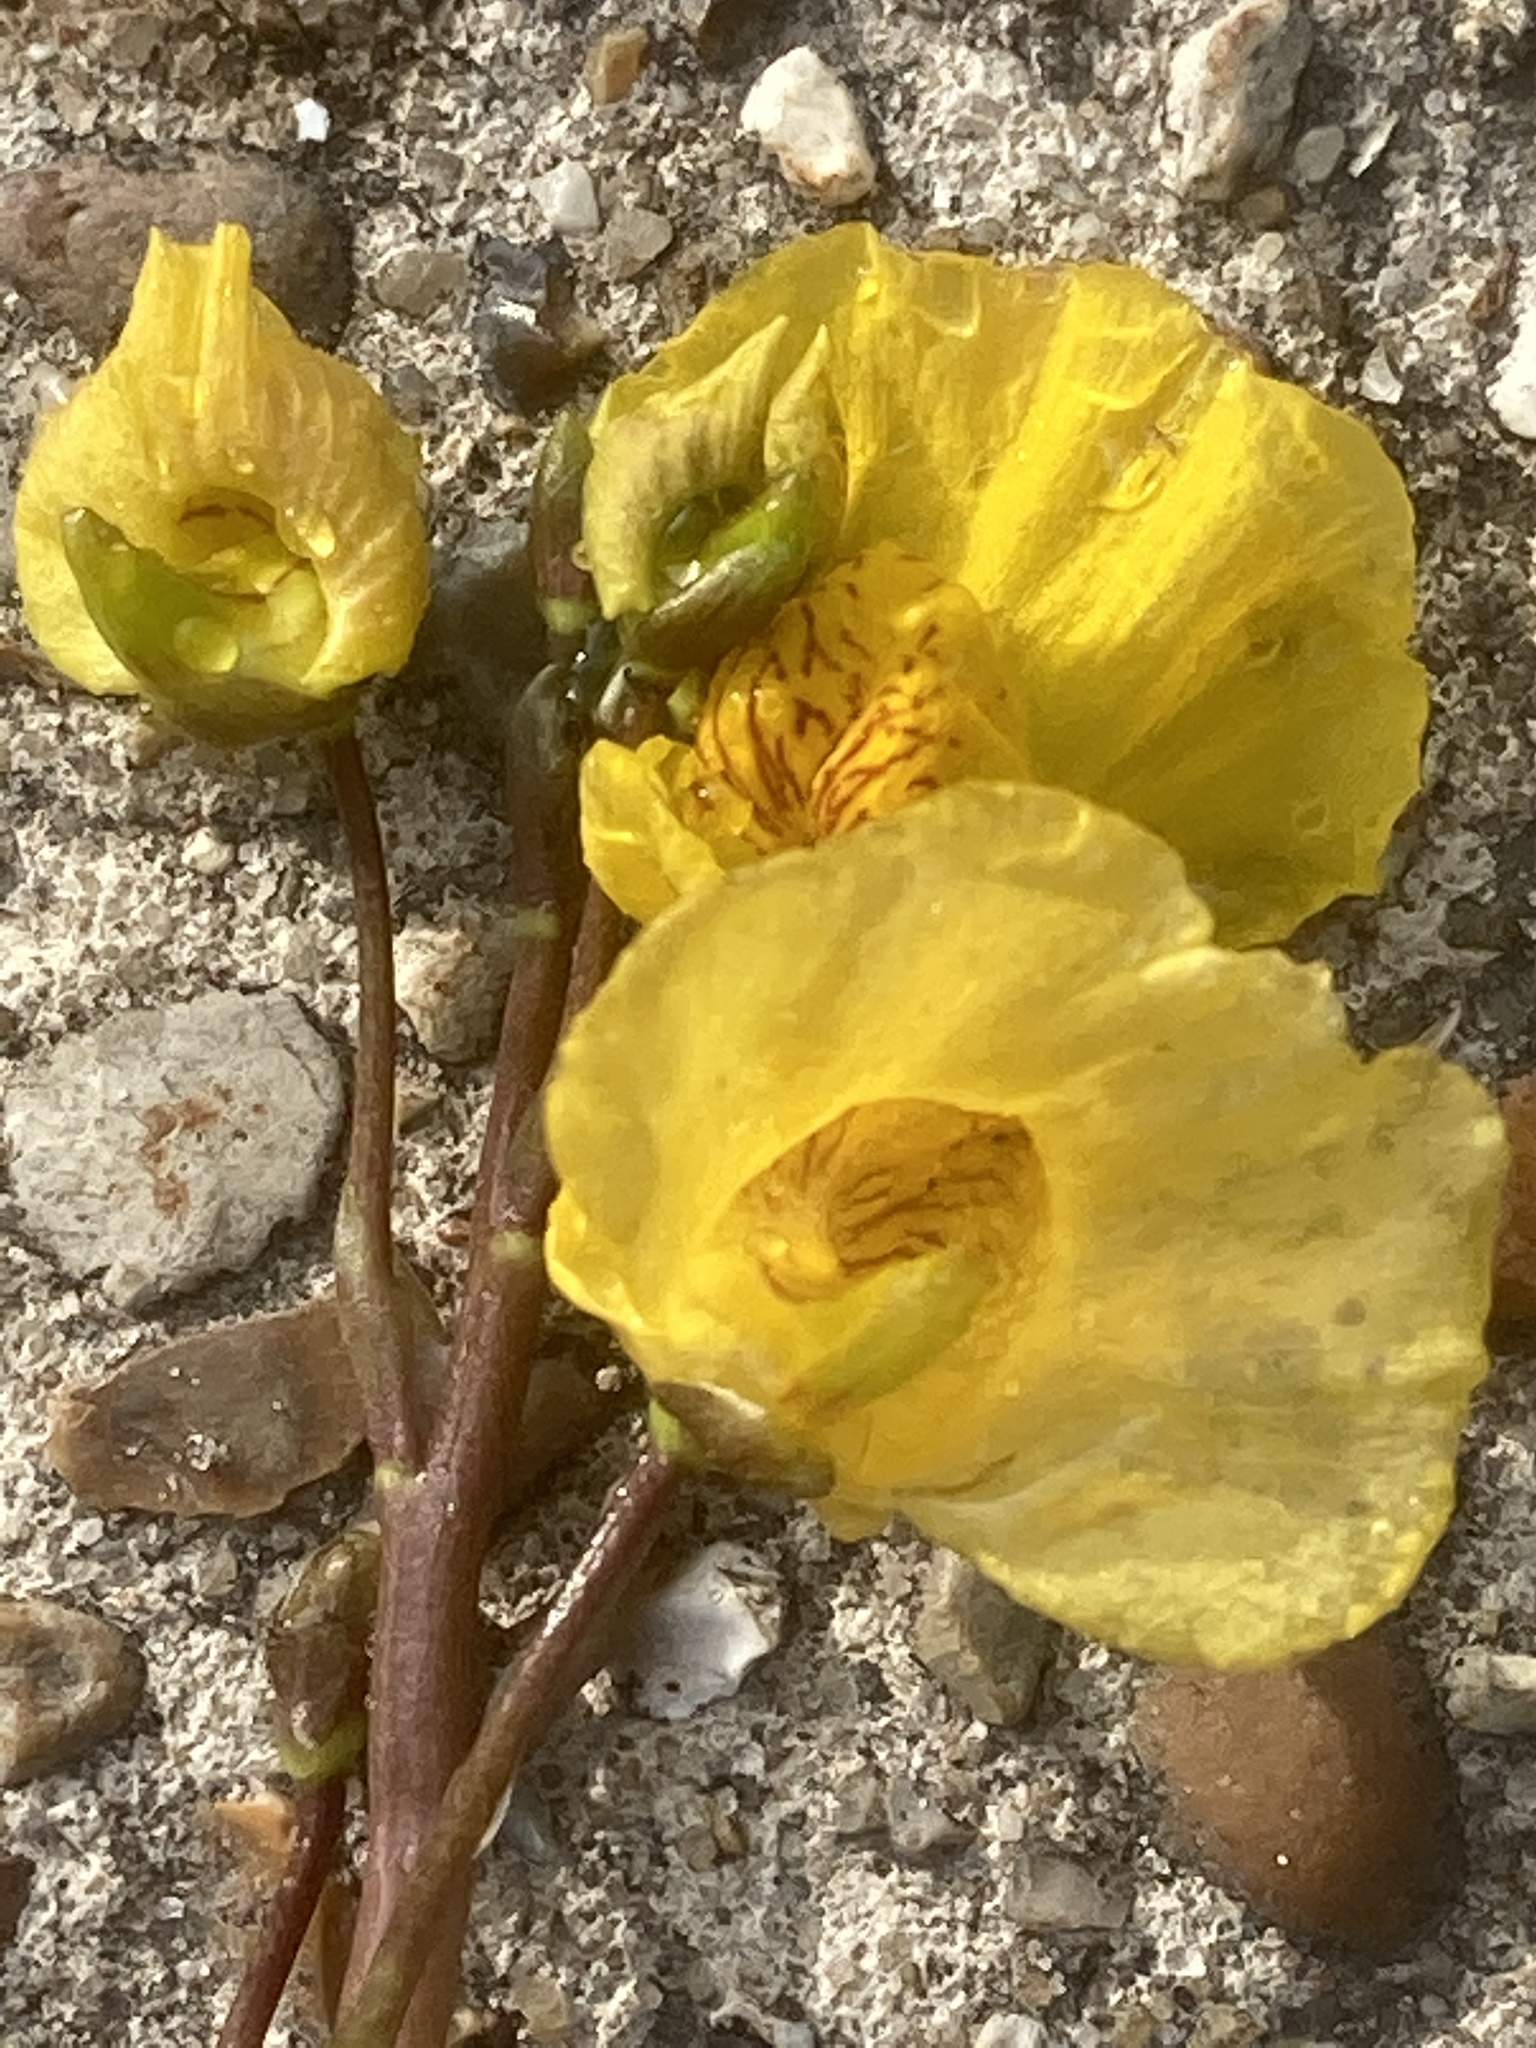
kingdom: Plantae
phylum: Tracheophyta
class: Magnoliopsida
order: Lamiales
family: Lentibulariaceae
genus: Utricularia
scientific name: Utricularia australis
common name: Bladderwort
